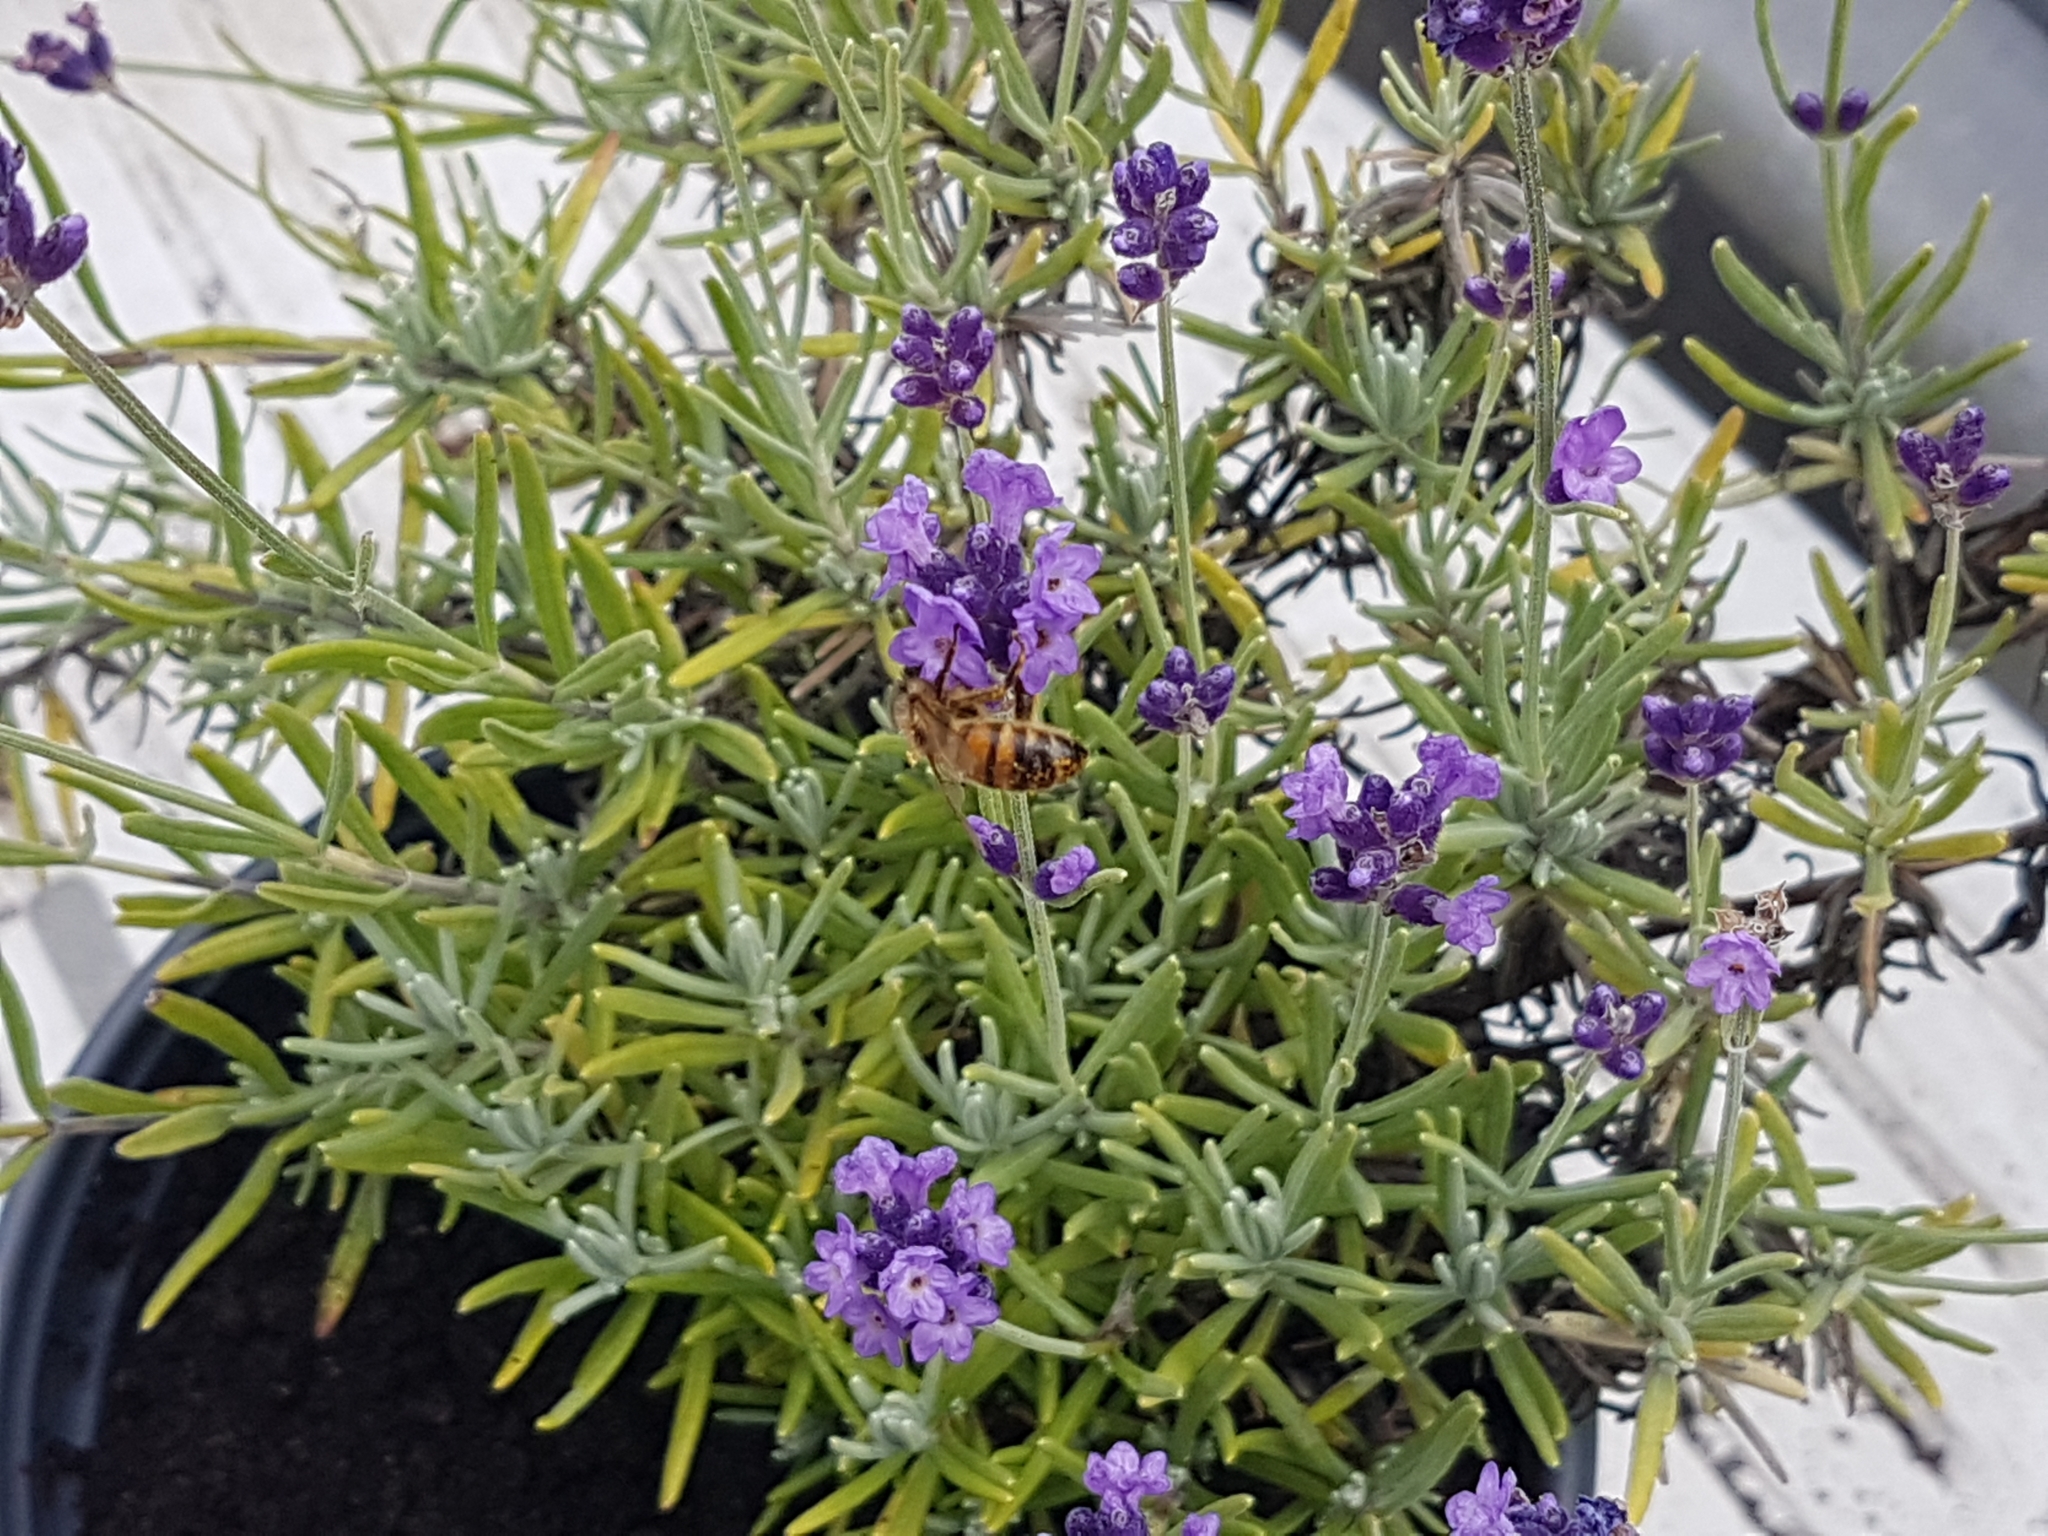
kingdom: Animalia
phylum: Arthropoda
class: Insecta
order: Hymenoptera
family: Apidae
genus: Apis
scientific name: Apis mellifera
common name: Honey bee
